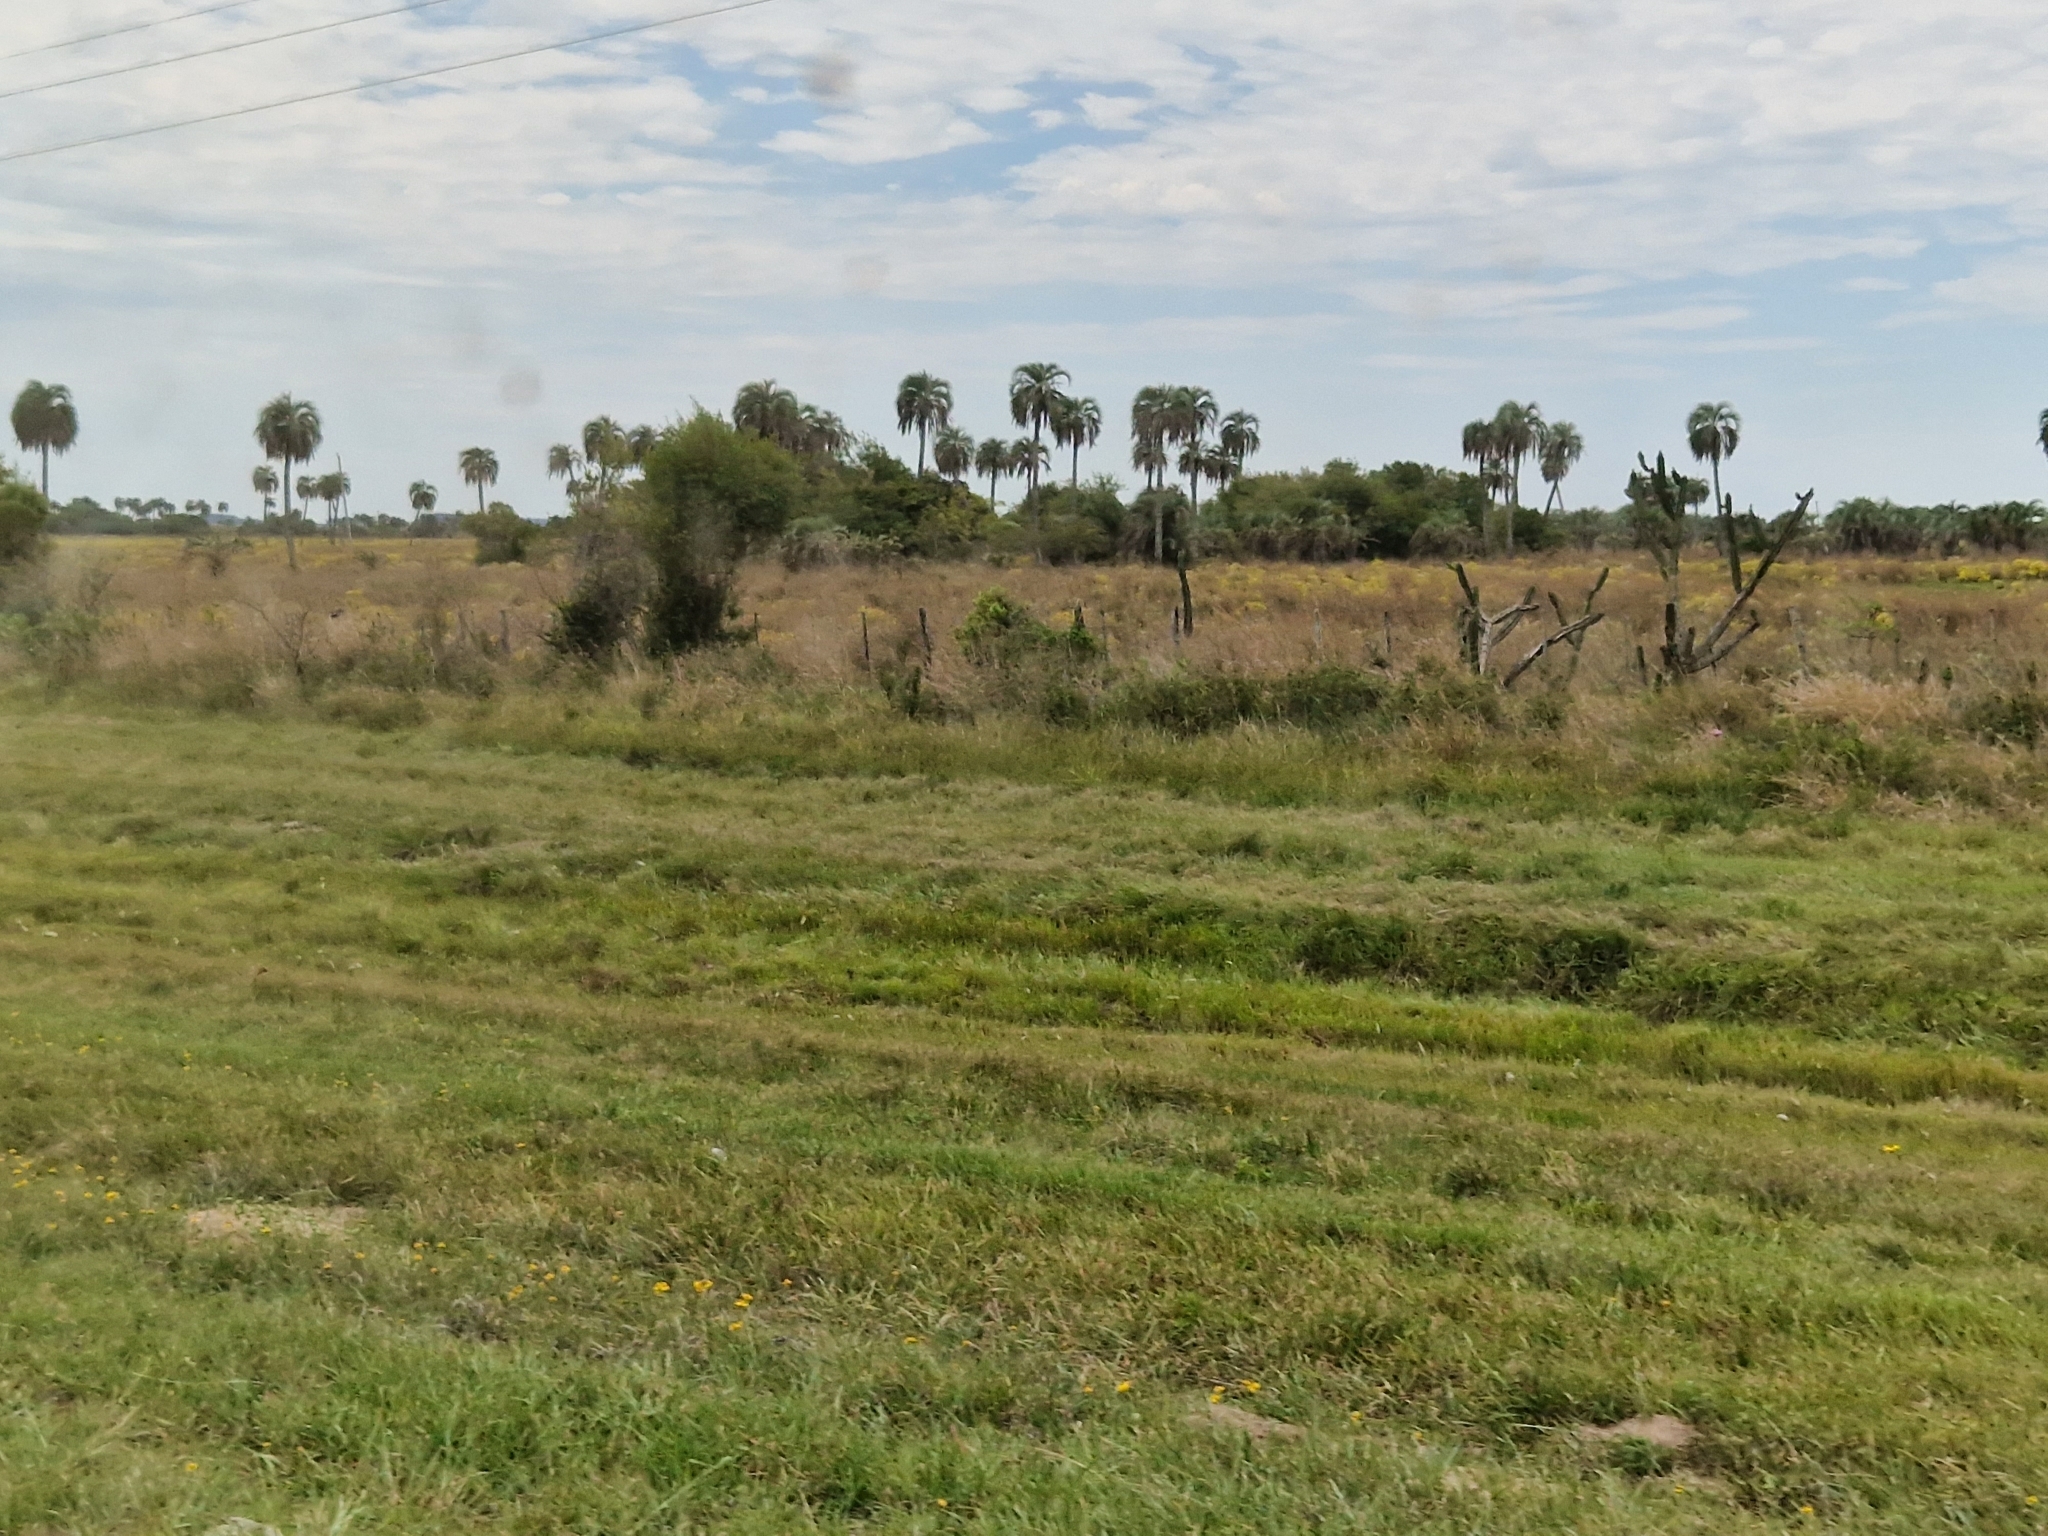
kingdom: Plantae
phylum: Tracheophyta
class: Liliopsida
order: Arecales
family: Arecaceae
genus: Butia
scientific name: Butia yatay
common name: Yatay palm
